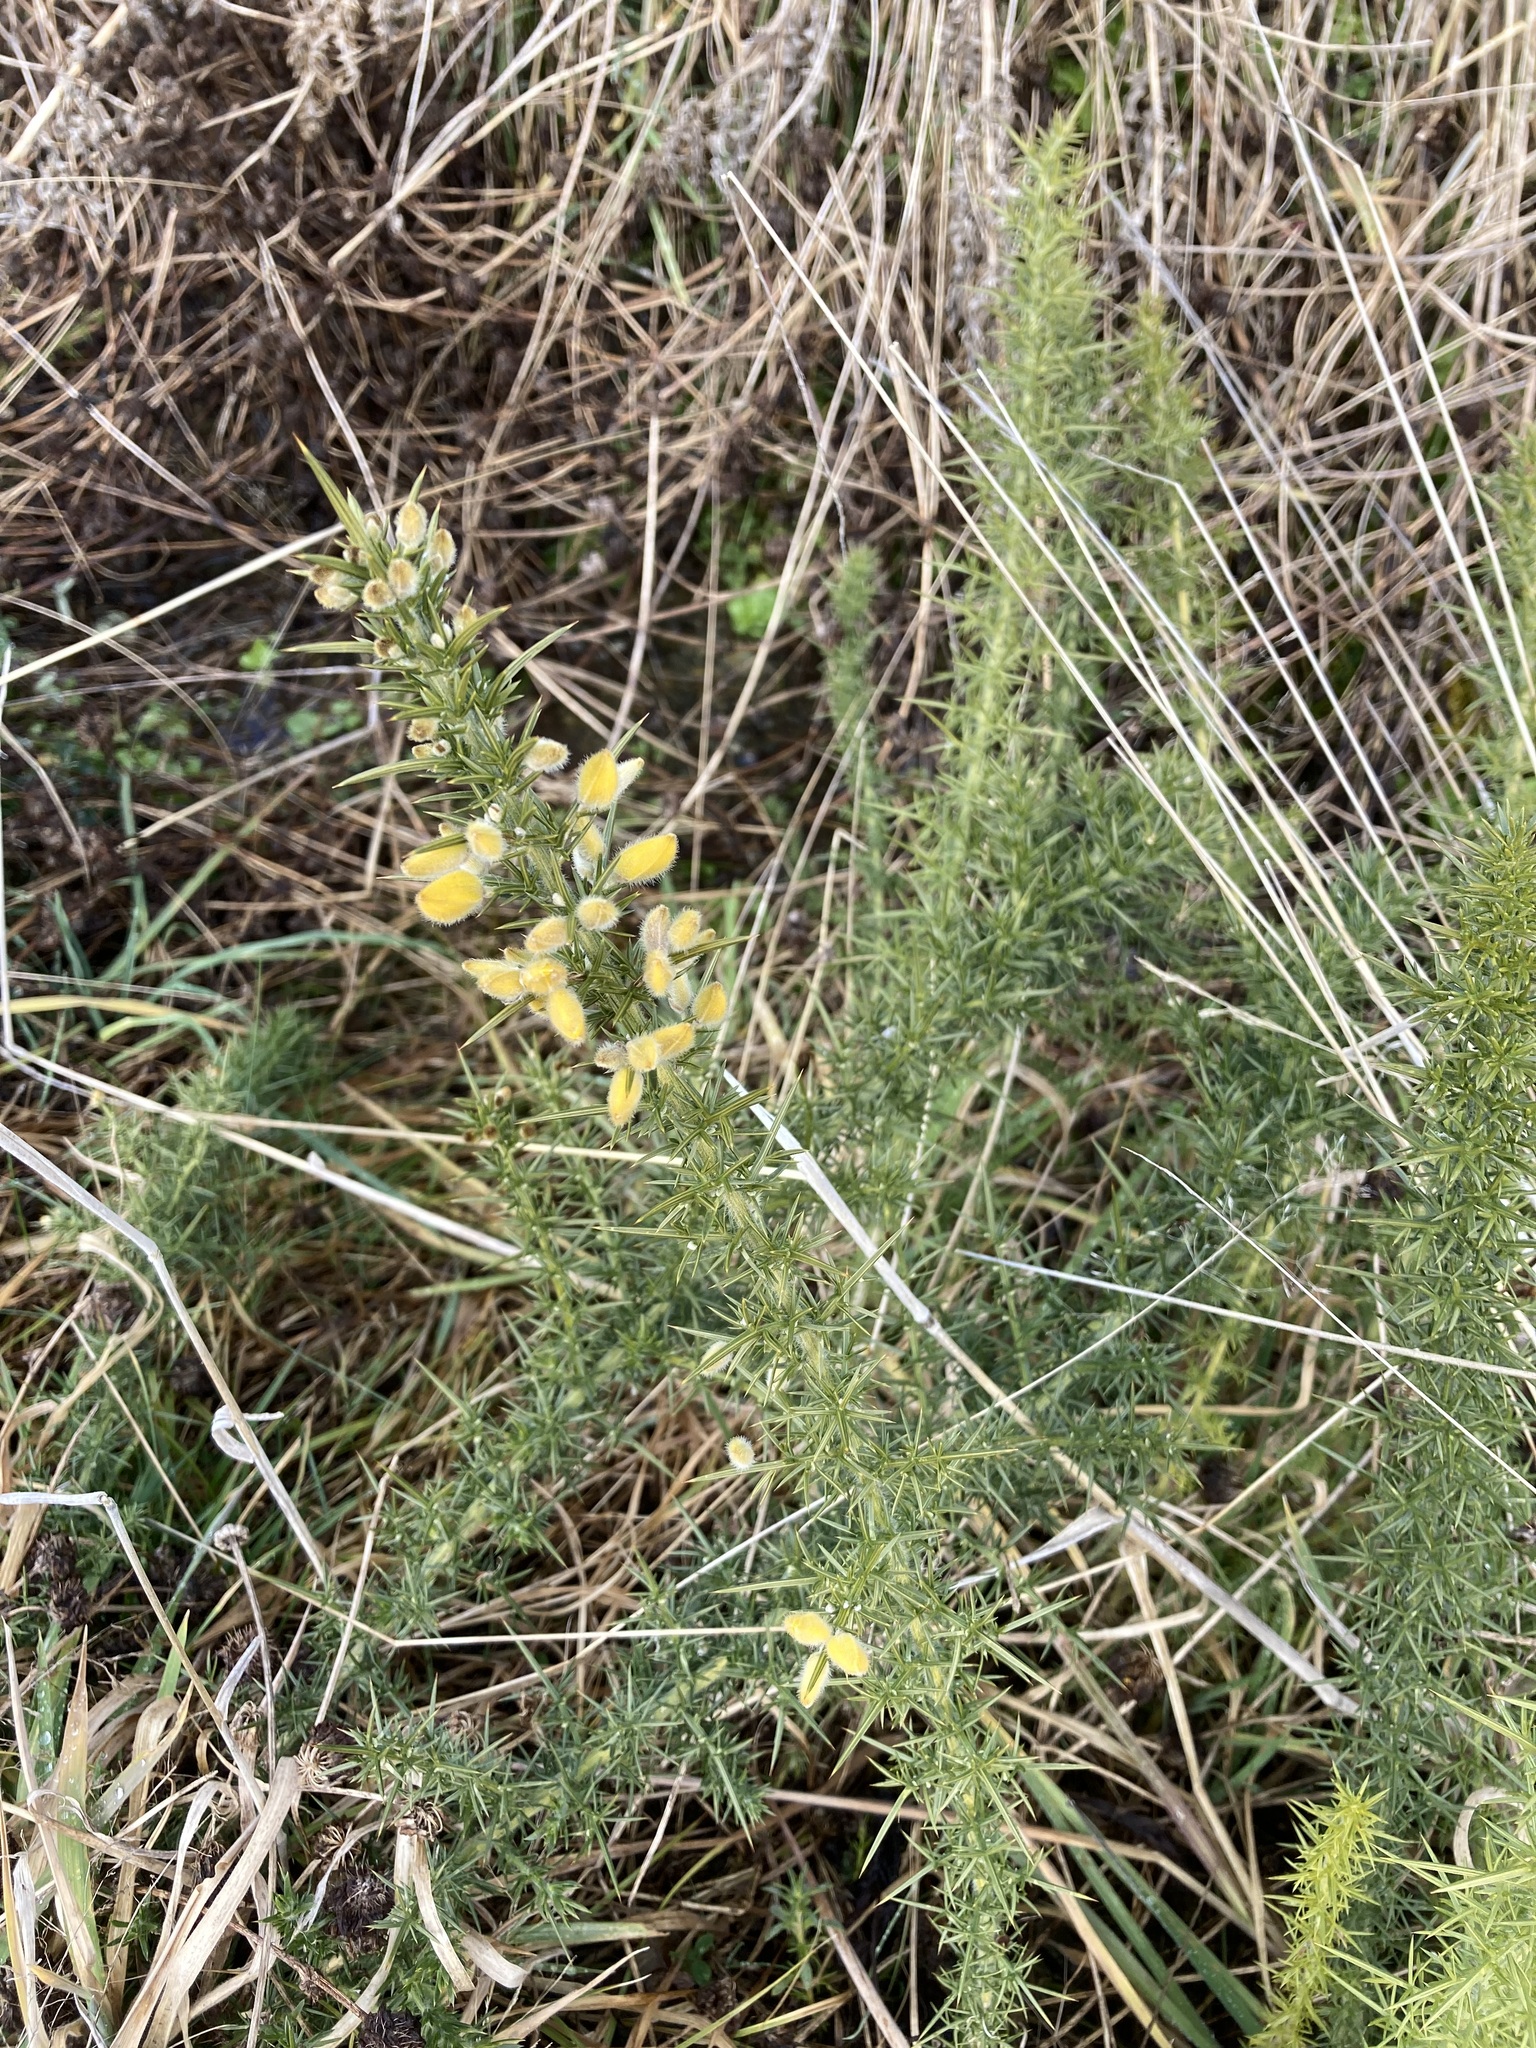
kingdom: Plantae
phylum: Tracheophyta
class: Magnoliopsida
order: Fabales
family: Fabaceae
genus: Ulex
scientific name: Ulex europaeus
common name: Common gorse
